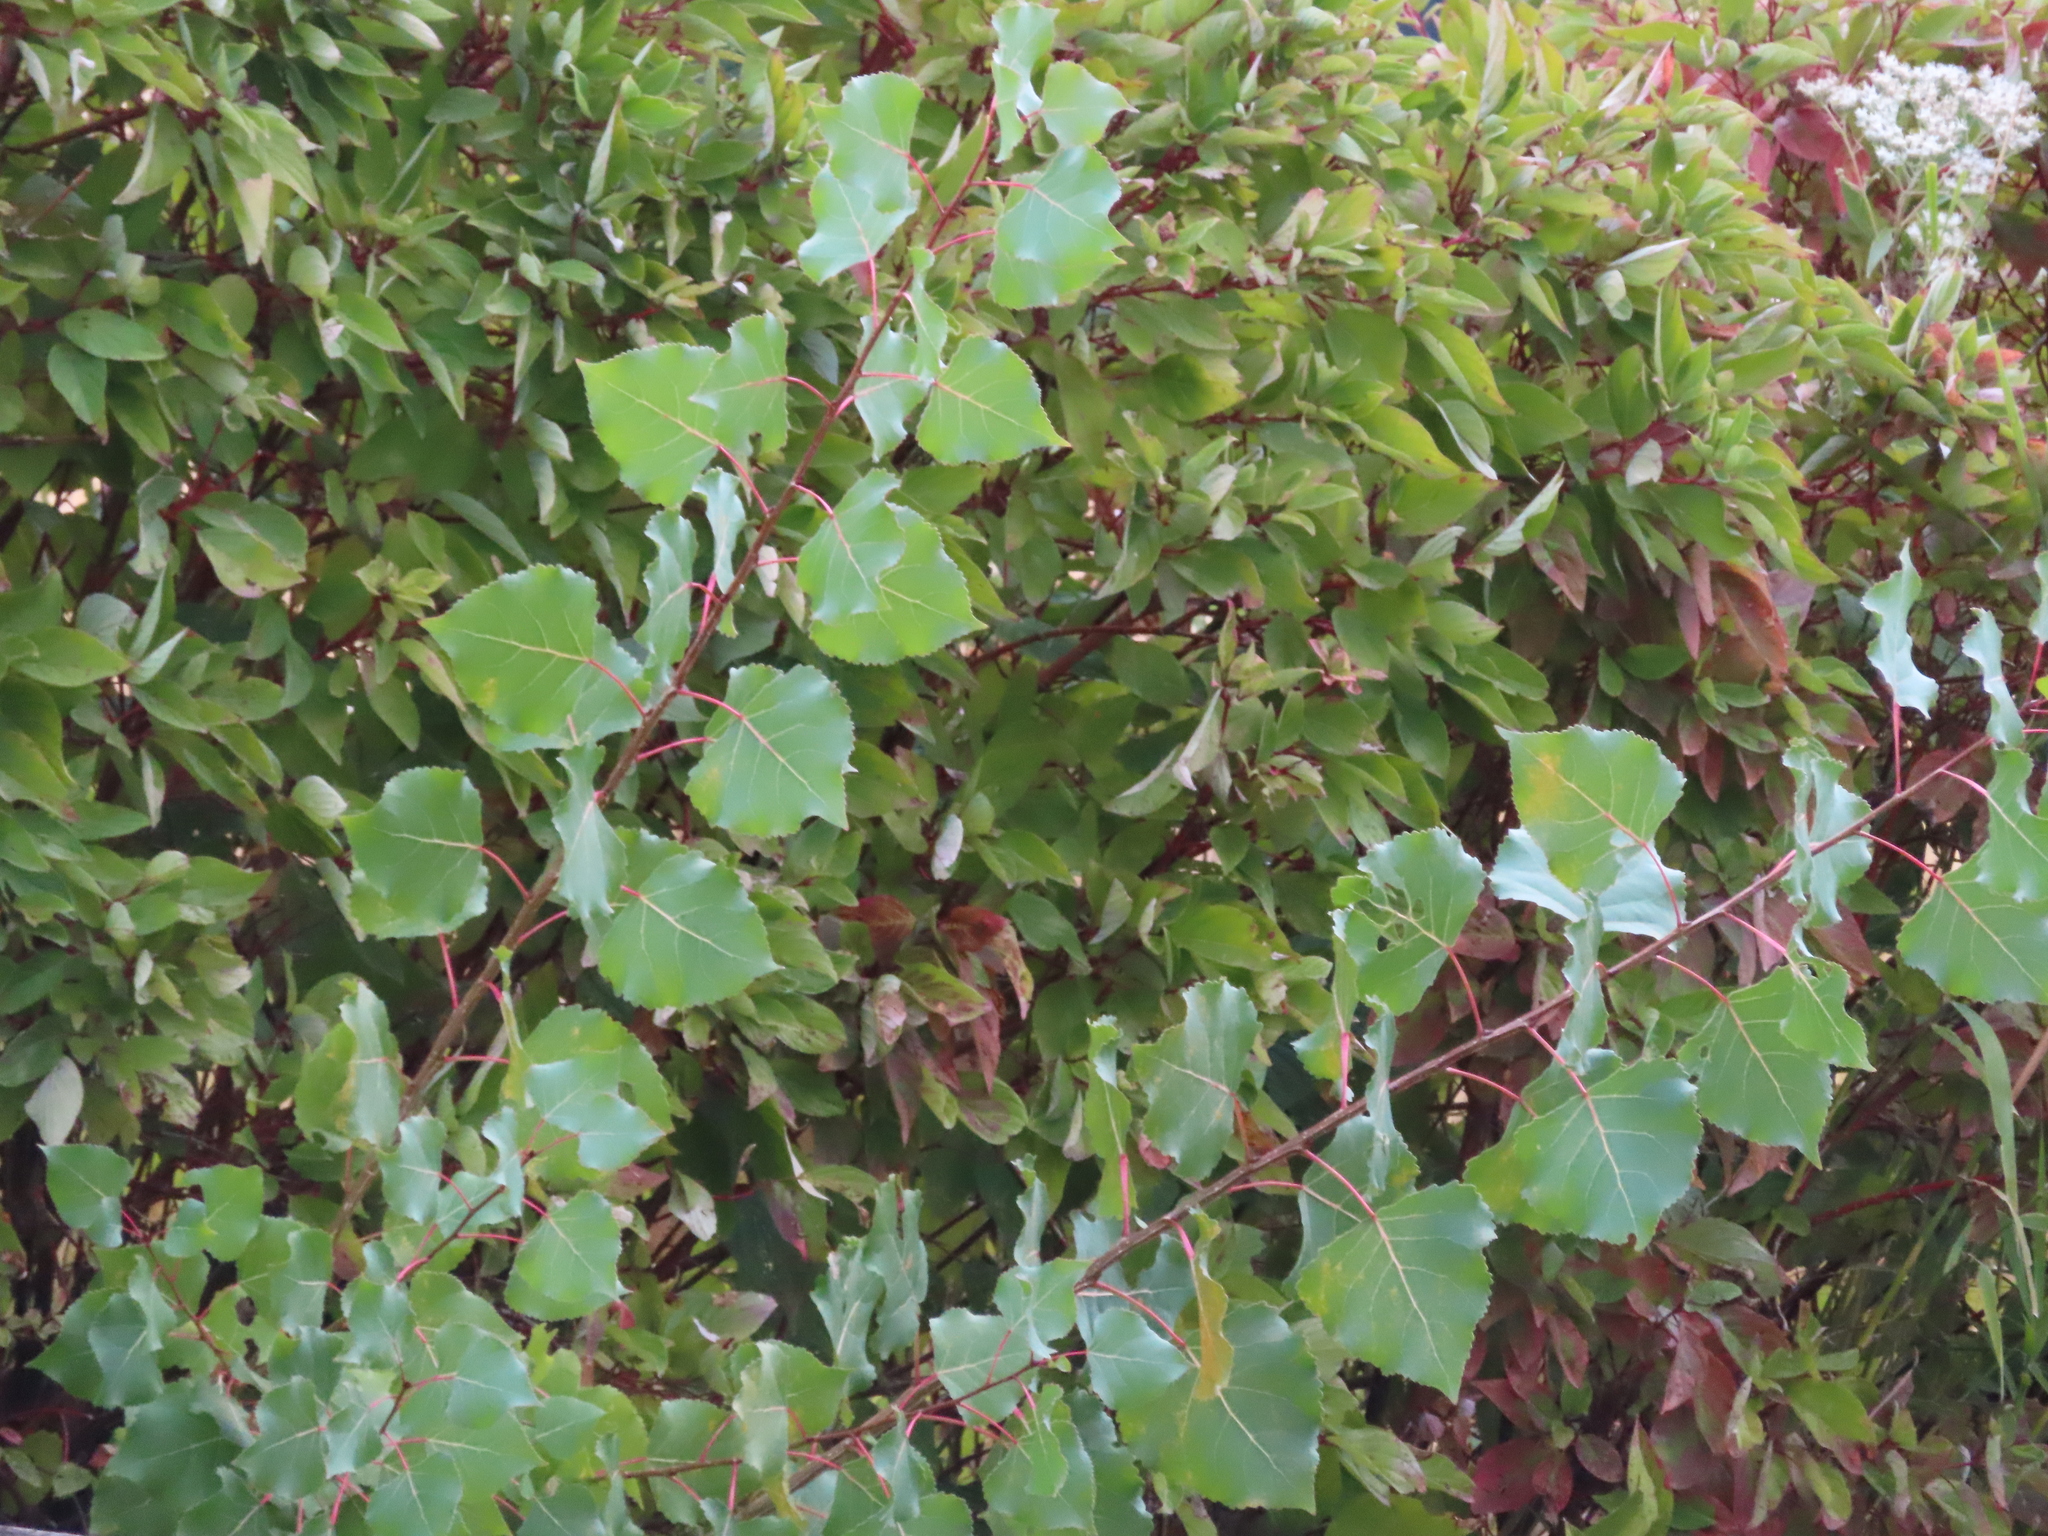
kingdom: Plantae
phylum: Tracheophyta
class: Magnoliopsida
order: Malpighiales
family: Salicaceae
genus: Populus
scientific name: Populus deltoides
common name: Eastern cottonwood
